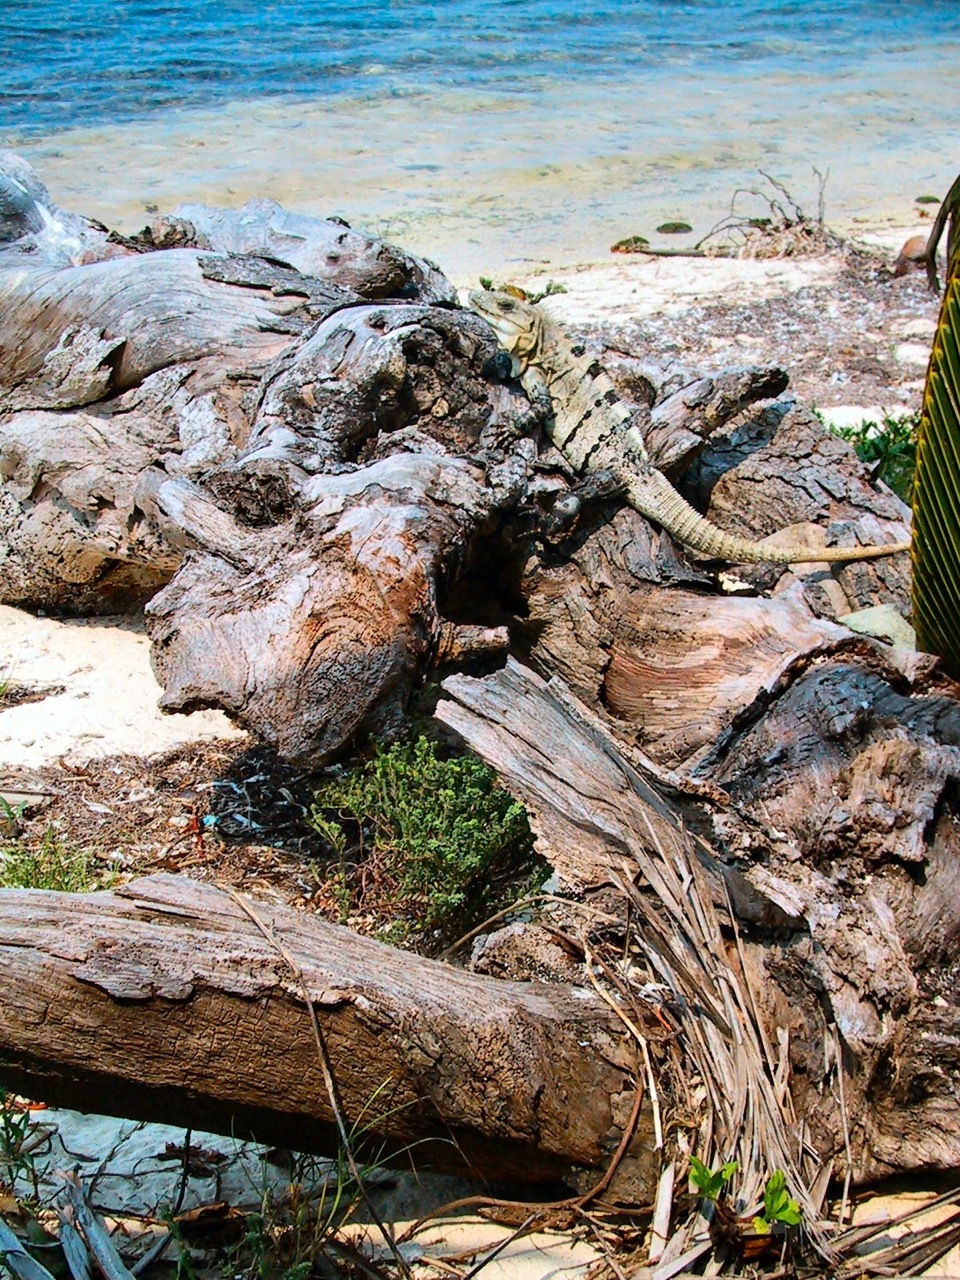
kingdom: Animalia
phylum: Chordata
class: Squamata
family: Iguanidae
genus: Ctenosaura
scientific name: Ctenosaura similis
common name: Black spiny-tailed iguana
